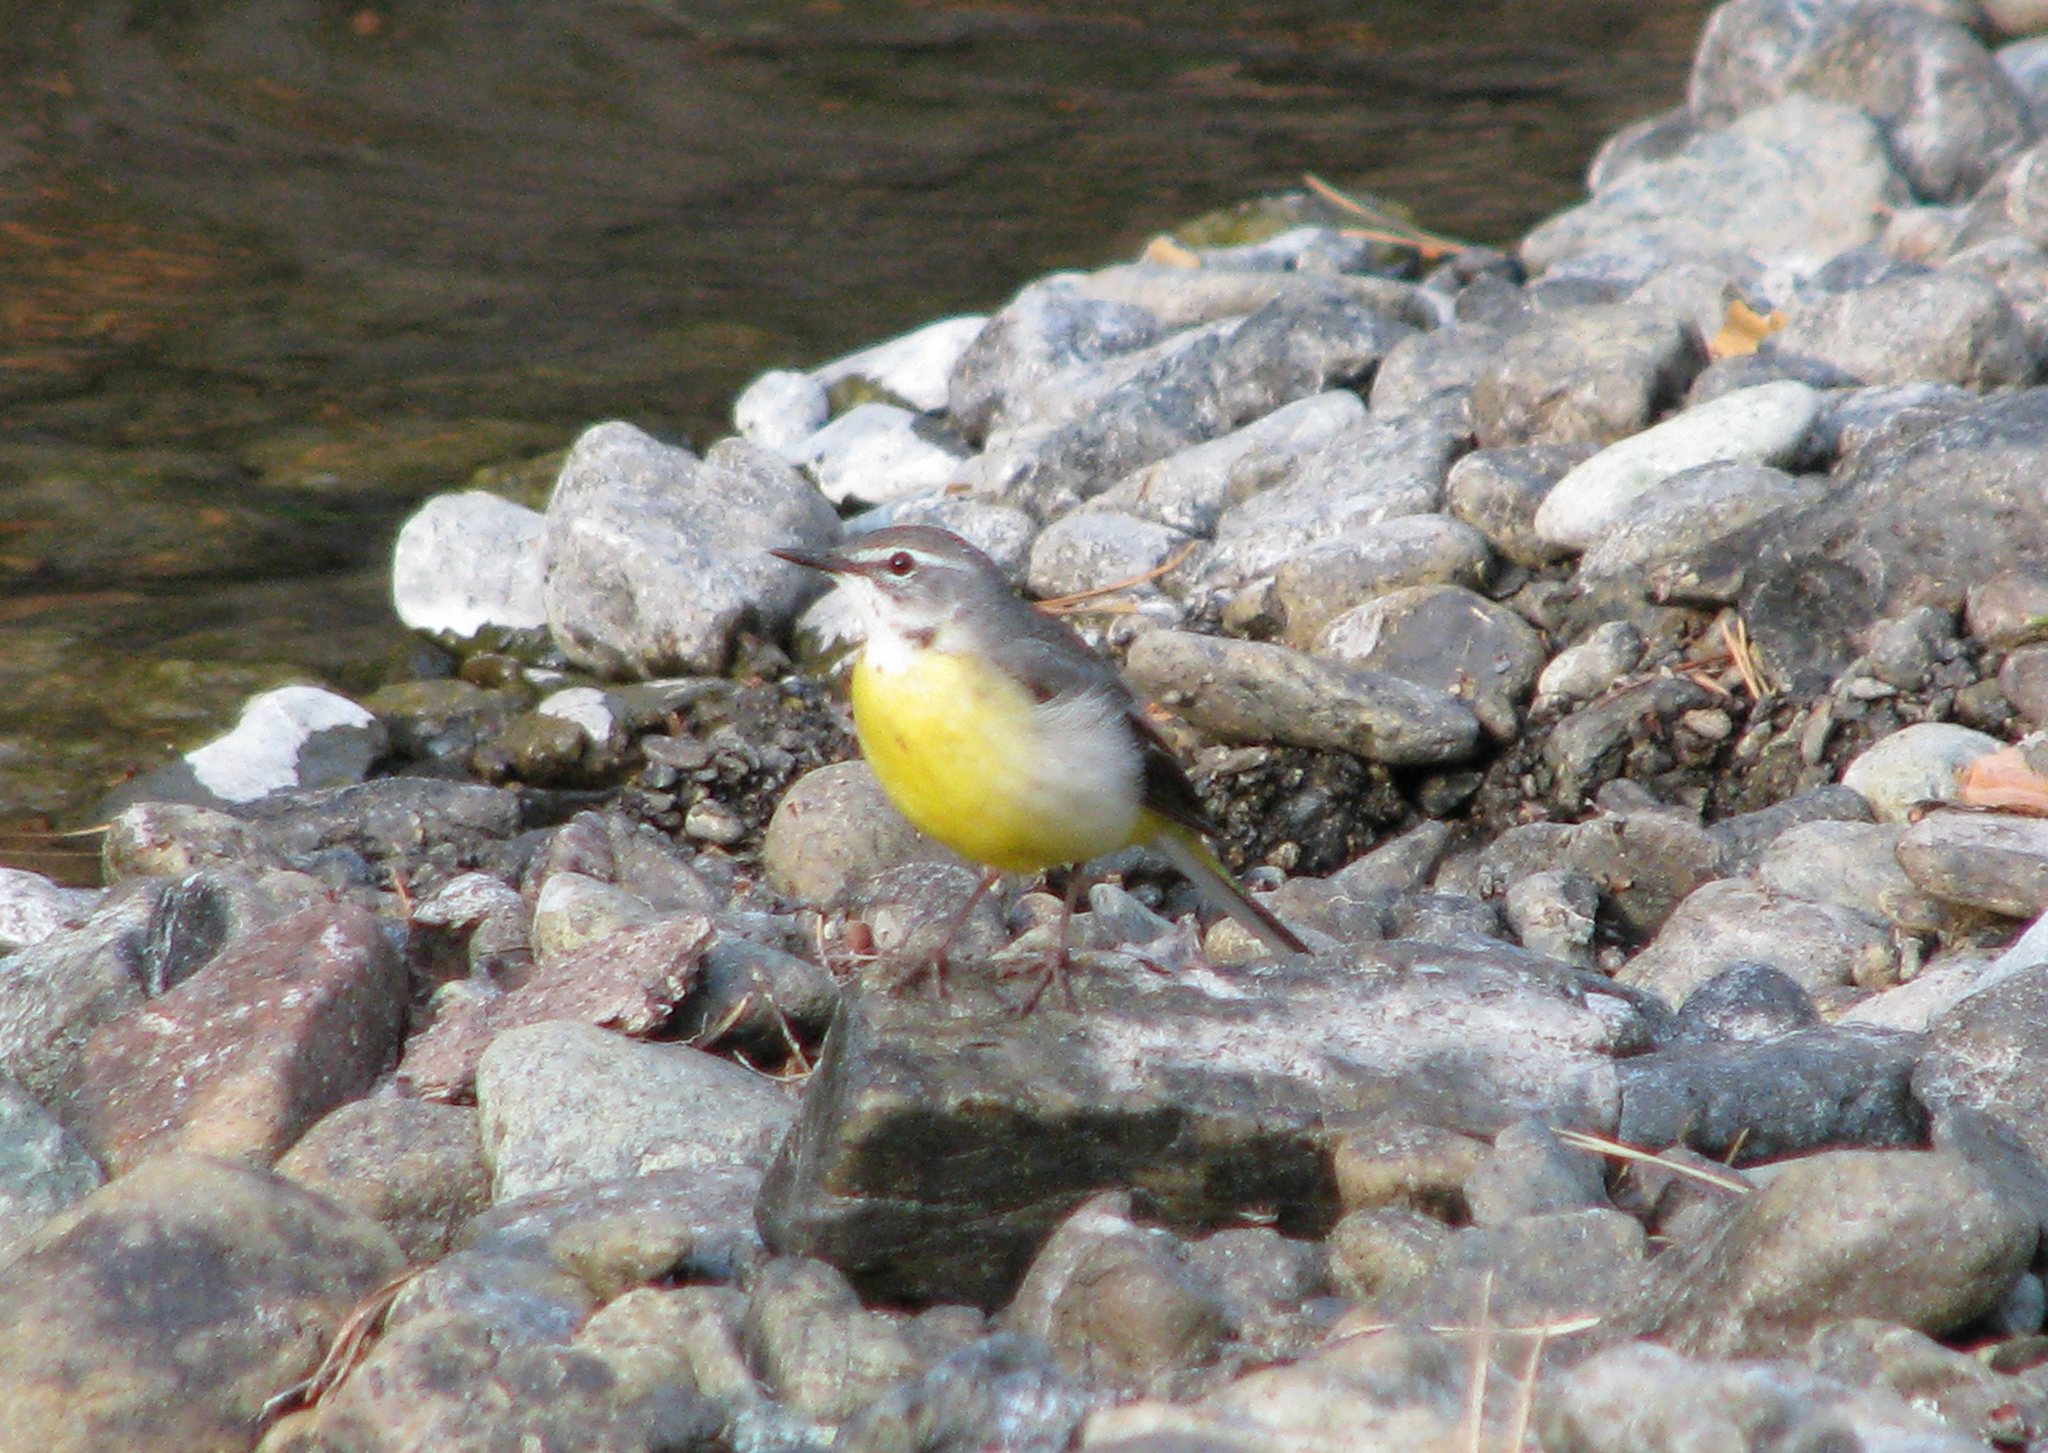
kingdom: Animalia
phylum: Chordata
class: Aves
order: Passeriformes
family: Motacillidae
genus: Motacilla
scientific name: Motacilla cinerea
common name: Grey wagtail
